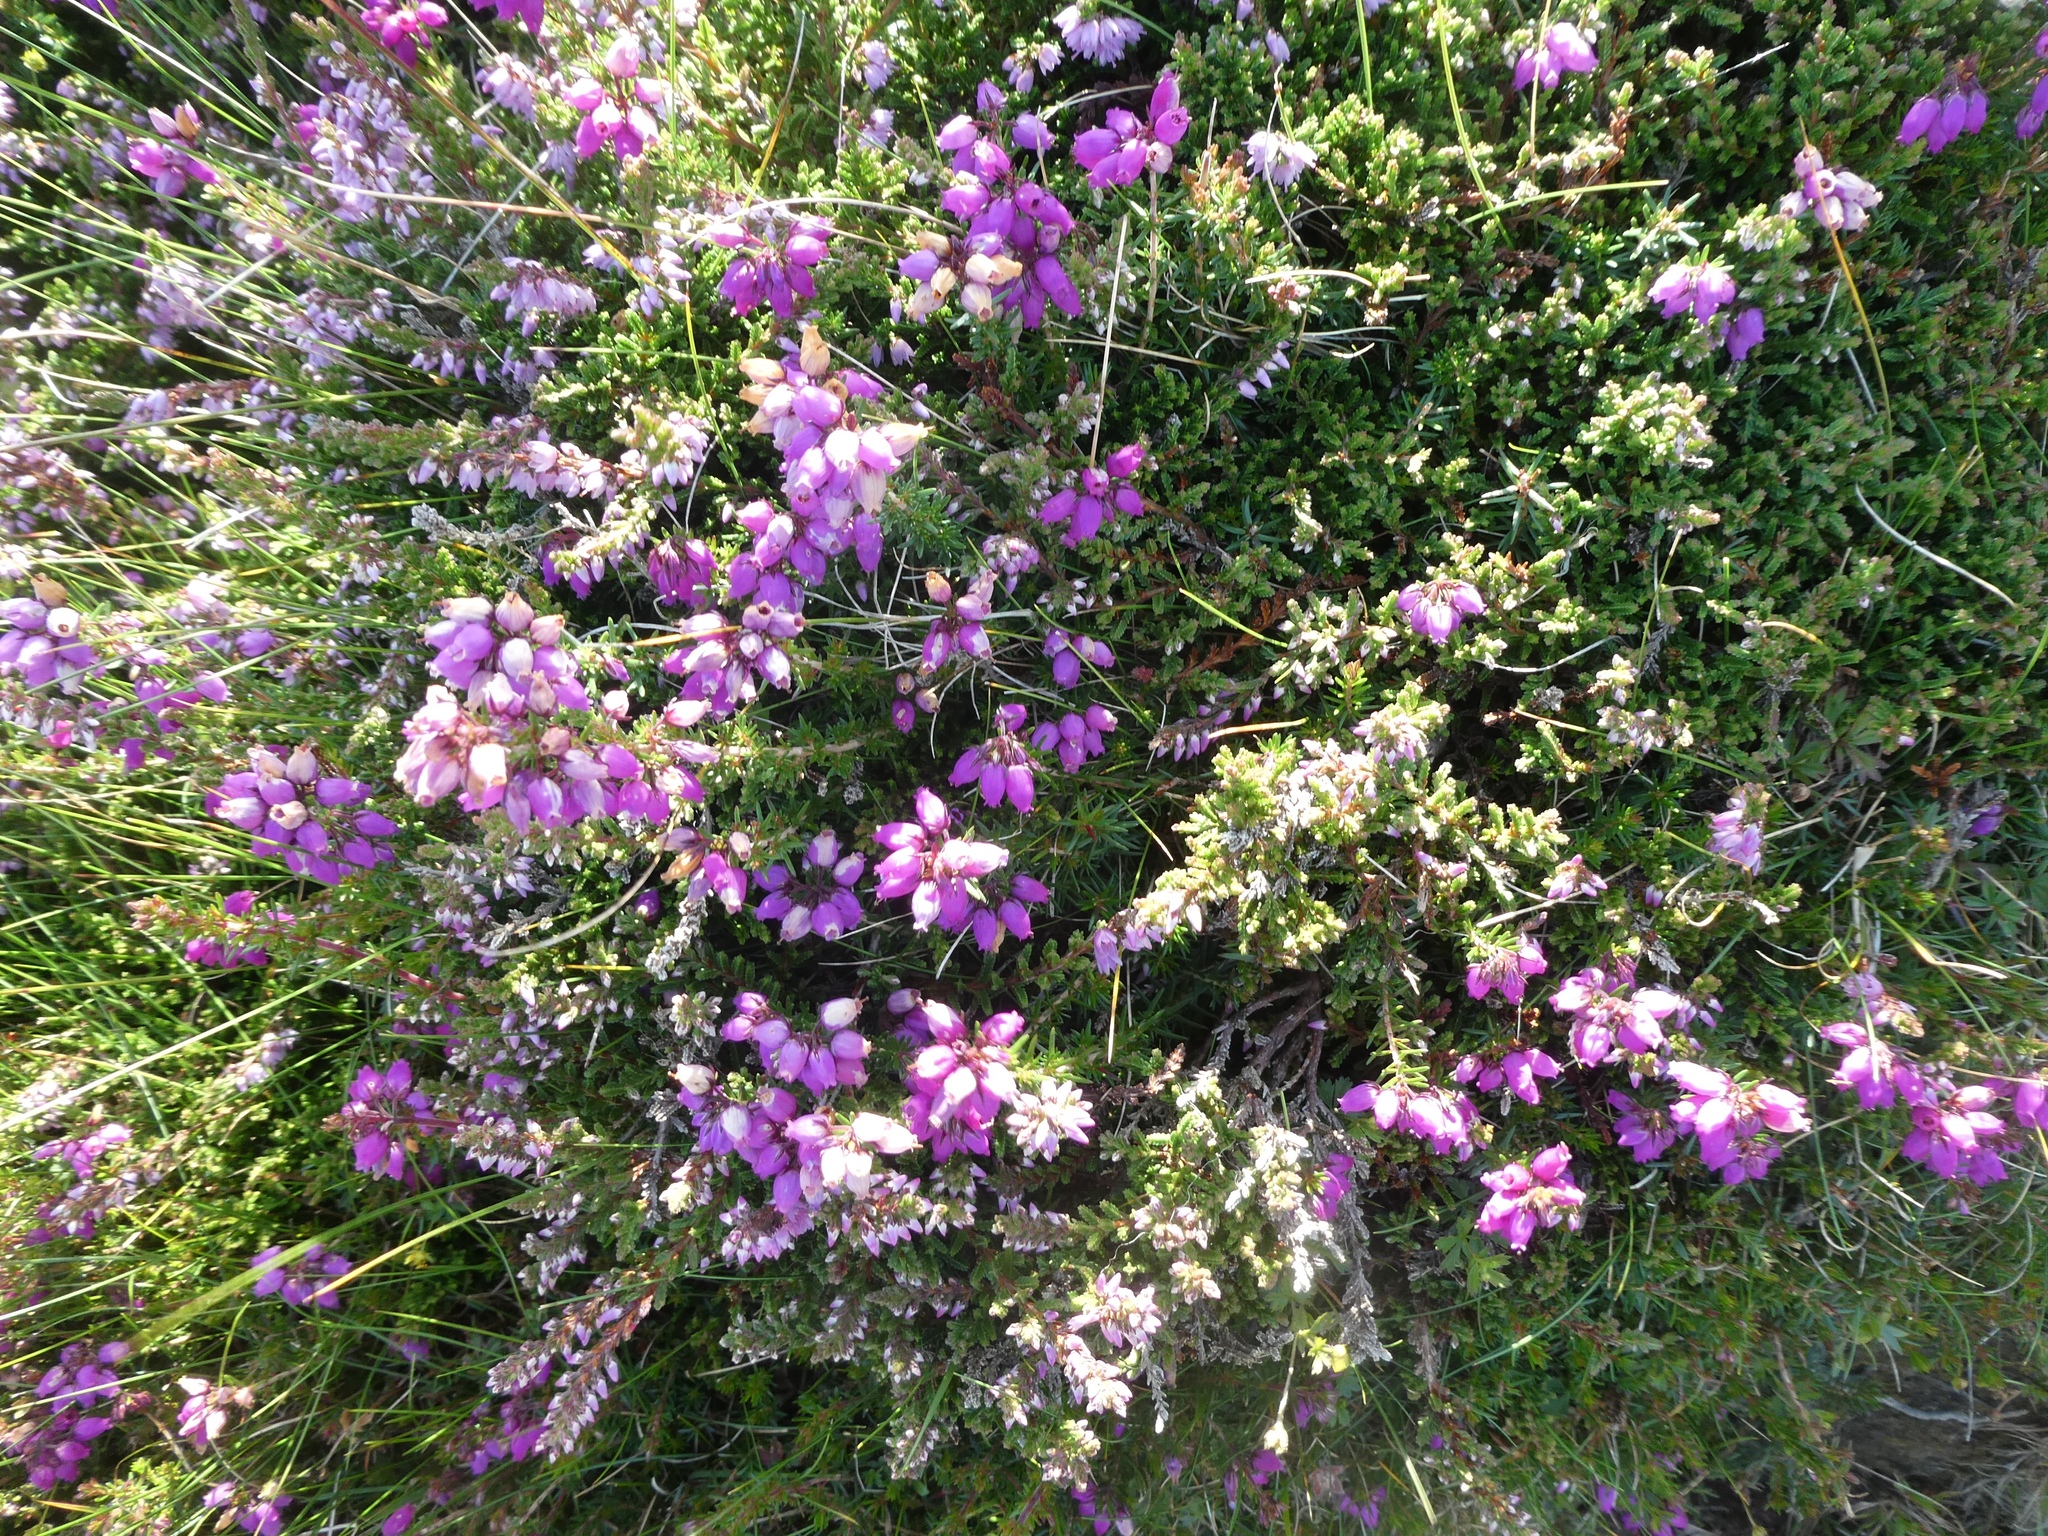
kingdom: Plantae
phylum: Tracheophyta
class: Magnoliopsida
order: Ericales
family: Ericaceae
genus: Erica
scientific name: Erica cinerea
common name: Bell heather
